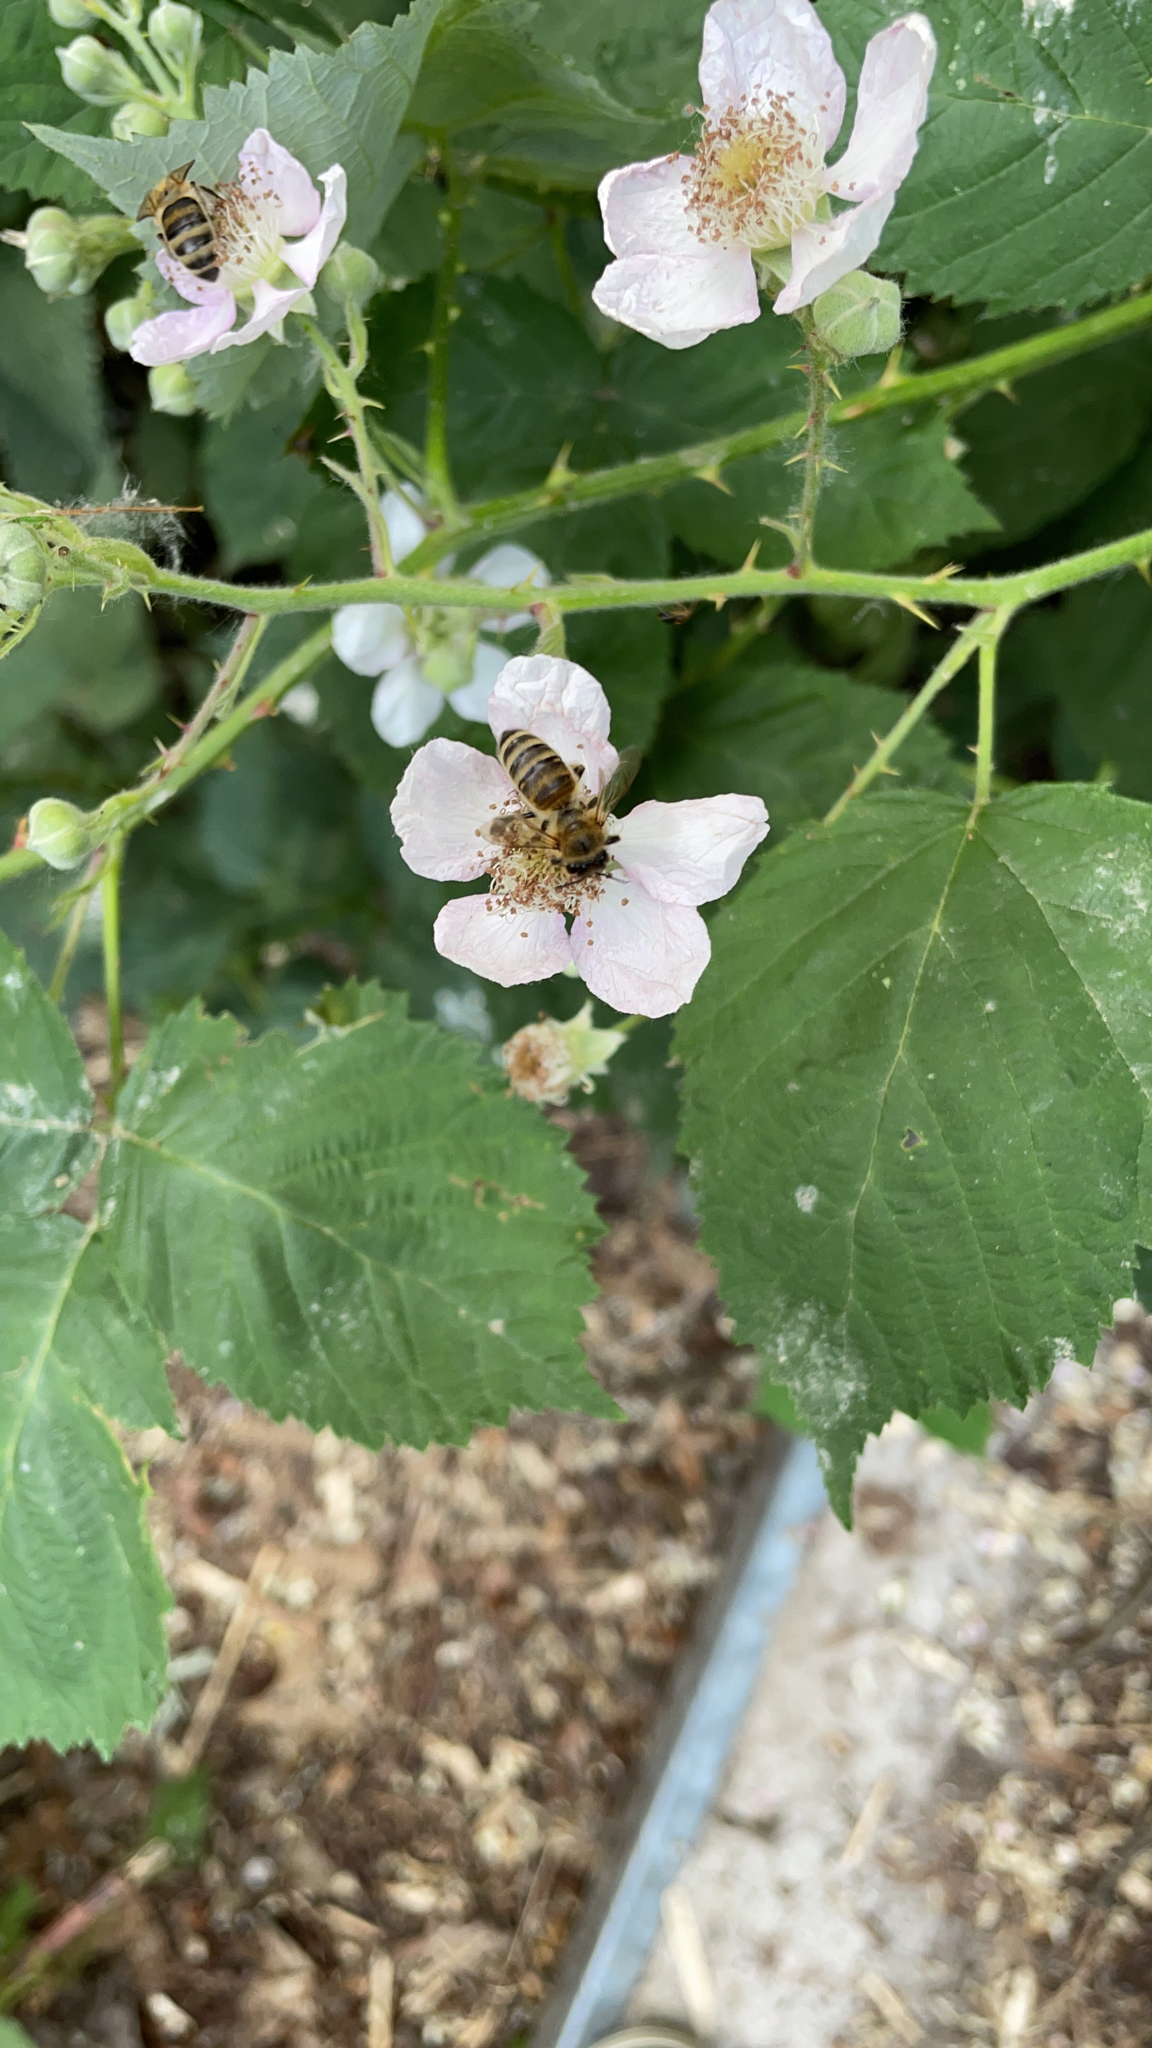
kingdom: Animalia
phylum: Arthropoda
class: Insecta
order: Hymenoptera
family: Apidae
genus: Apis
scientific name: Apis mellifera
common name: Honey bee
